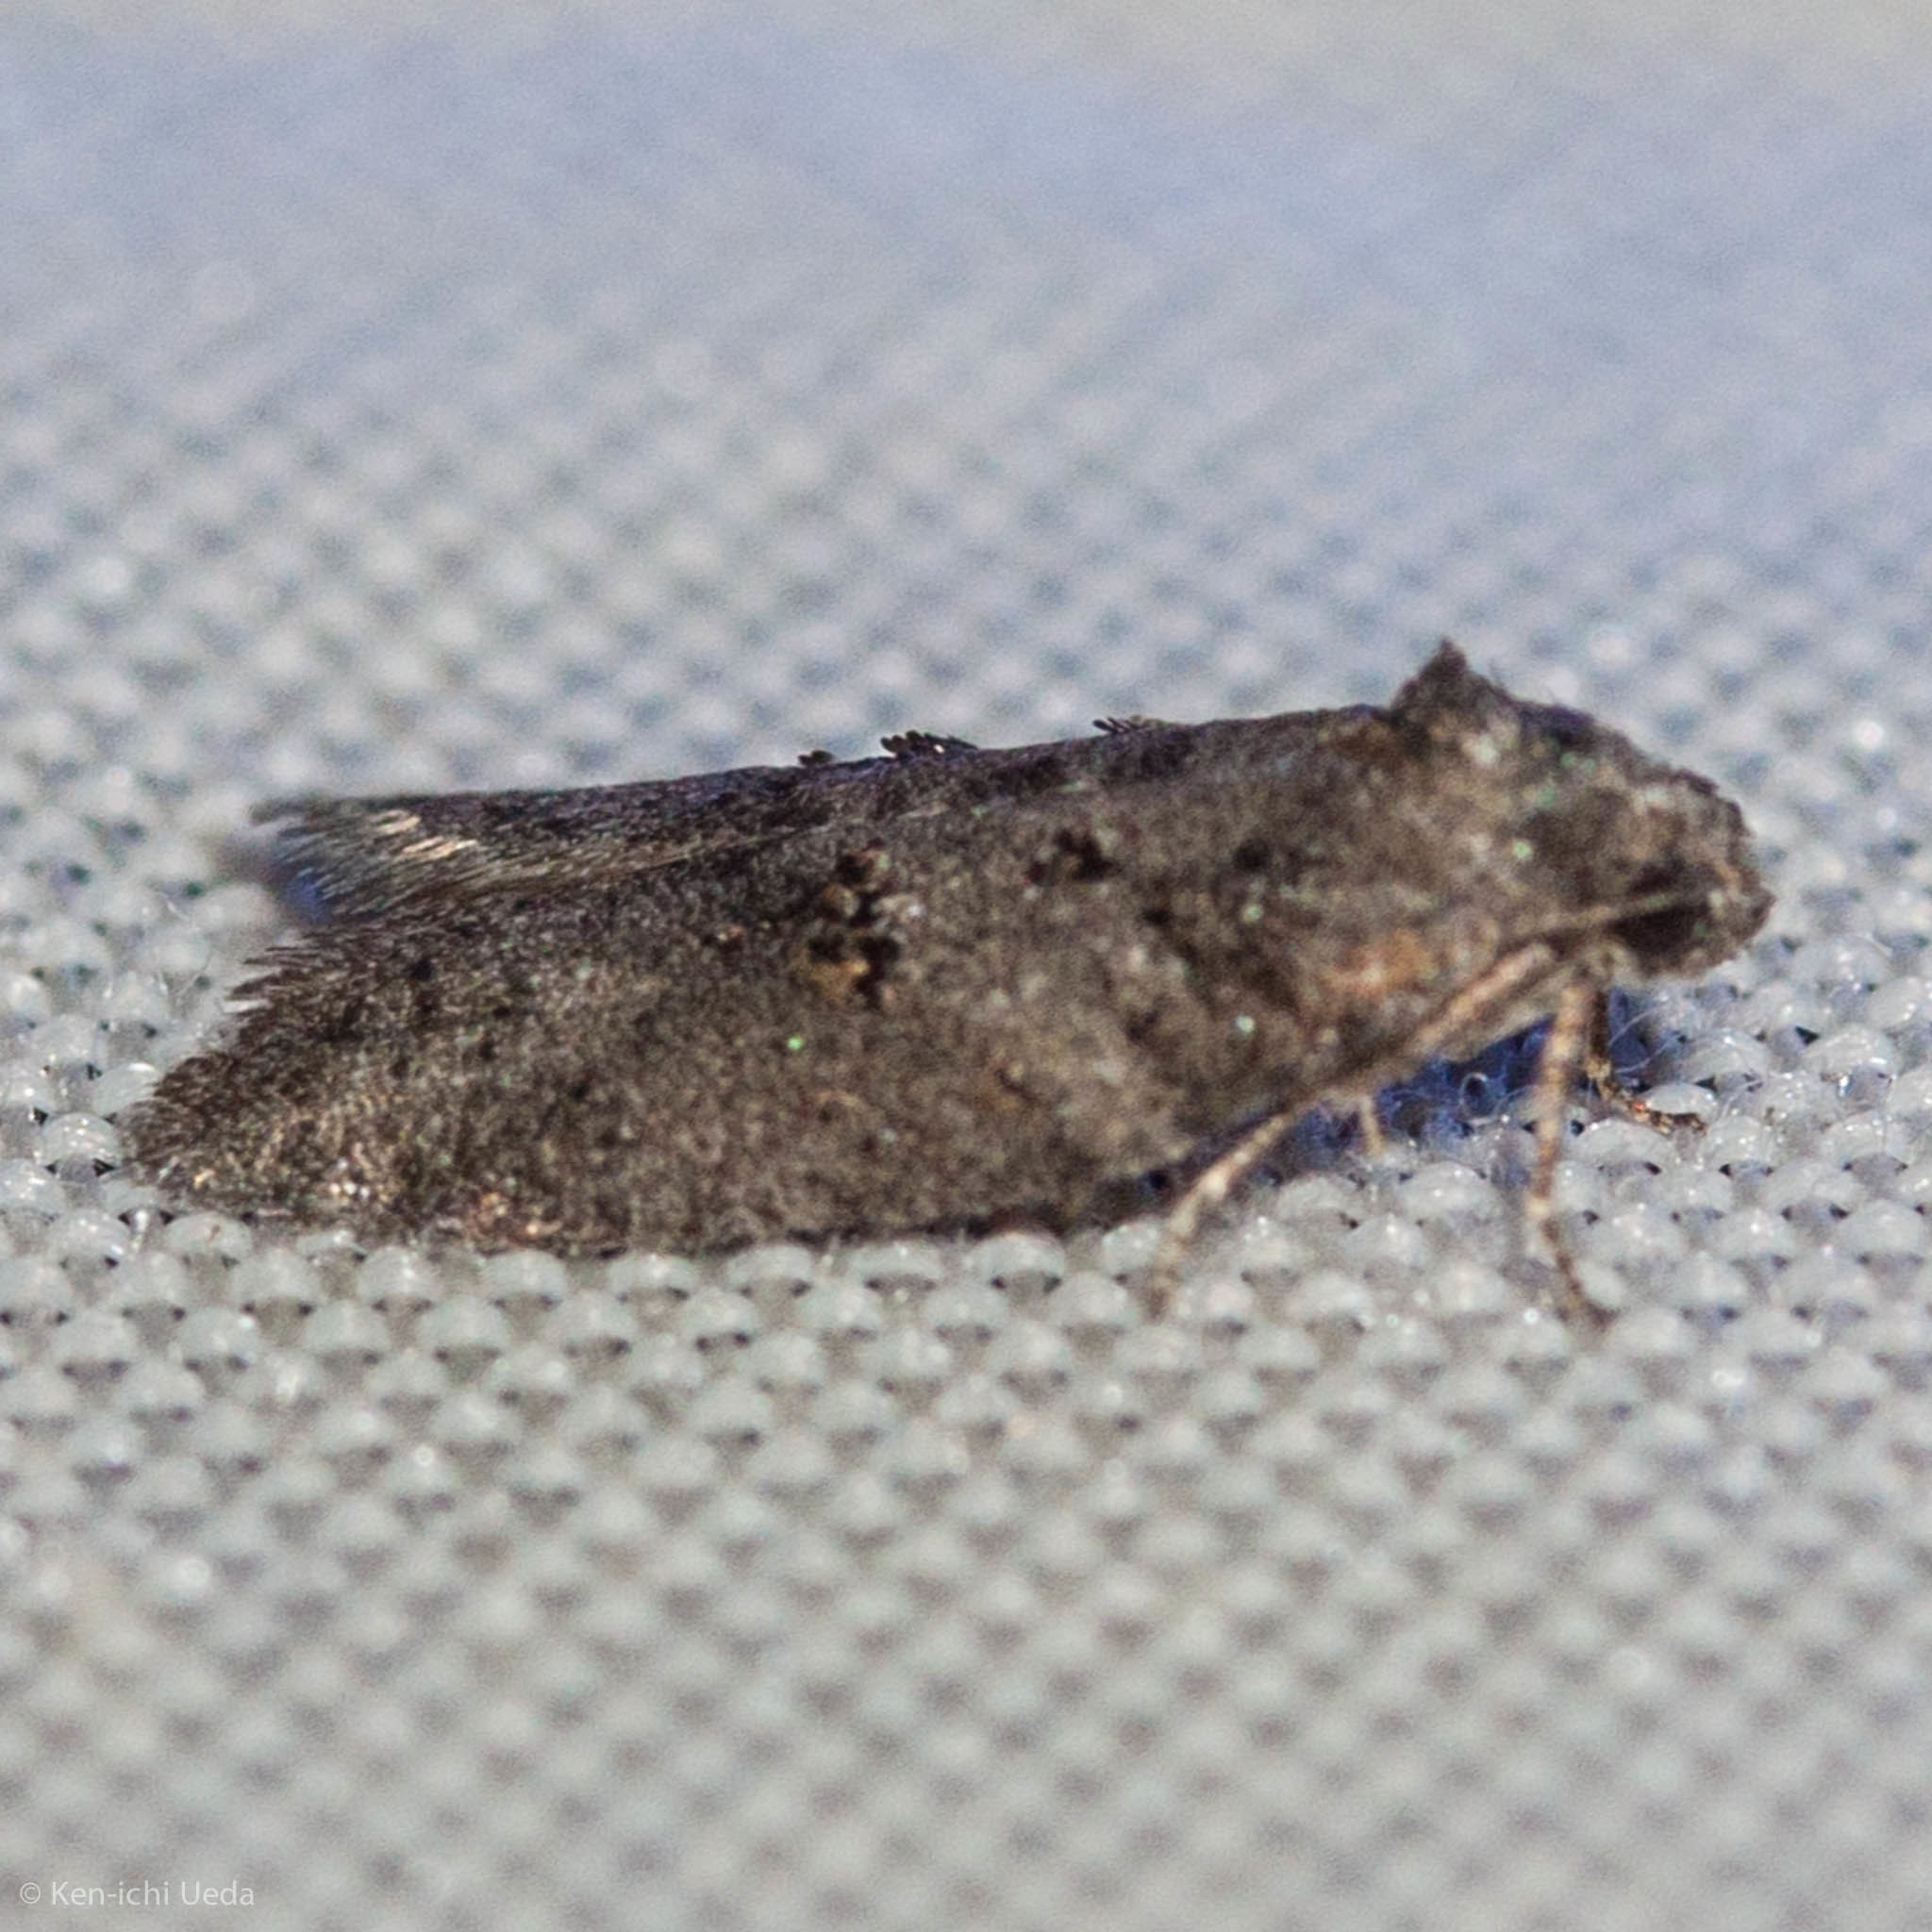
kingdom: Animalia
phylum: Arthropoda
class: Insecta
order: Lepidoptera
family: Tortricidae
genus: Decodes
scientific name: Decodes basiplagana
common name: Gray-marked tortricid
